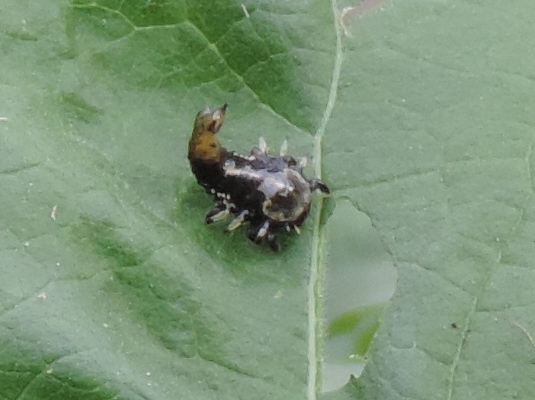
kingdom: Animalia
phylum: Arthropoda
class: Insecta
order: Coleoptera
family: Chrysomelidae
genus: Physonota
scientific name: Physonota arizonae
